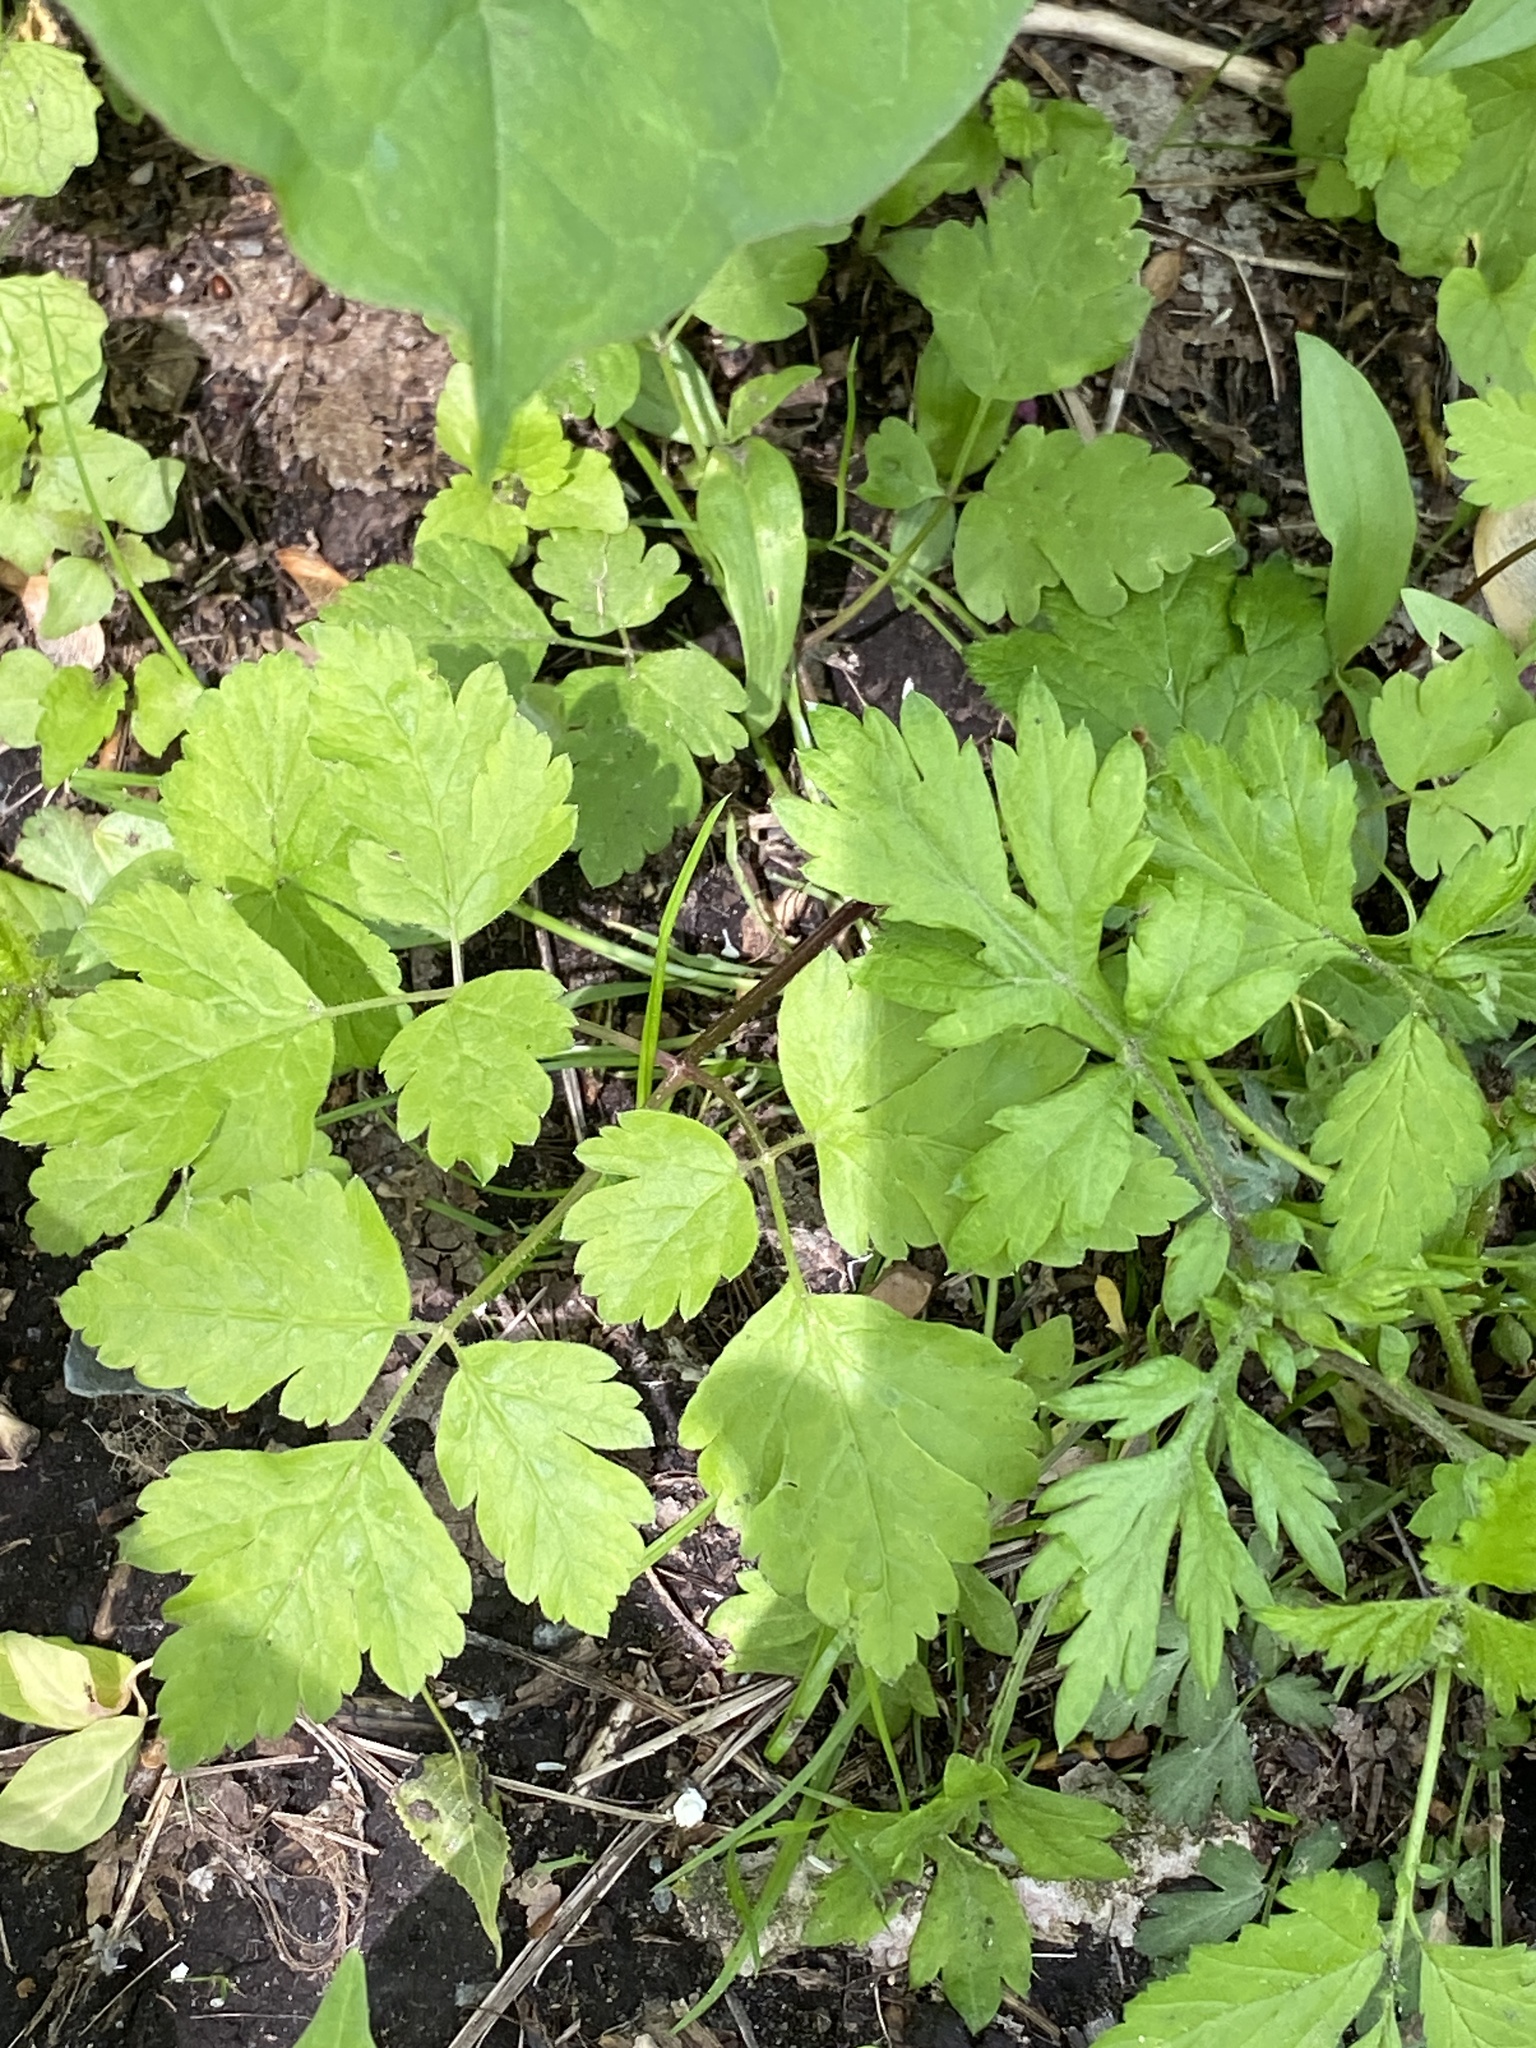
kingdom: Plantae
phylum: Tracheophyta
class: Magnoliopsida
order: Apiales
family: Apiaceae
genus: Osmorhiza
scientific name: Osmorhiza claytonii
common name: Hairy sweet cicely
